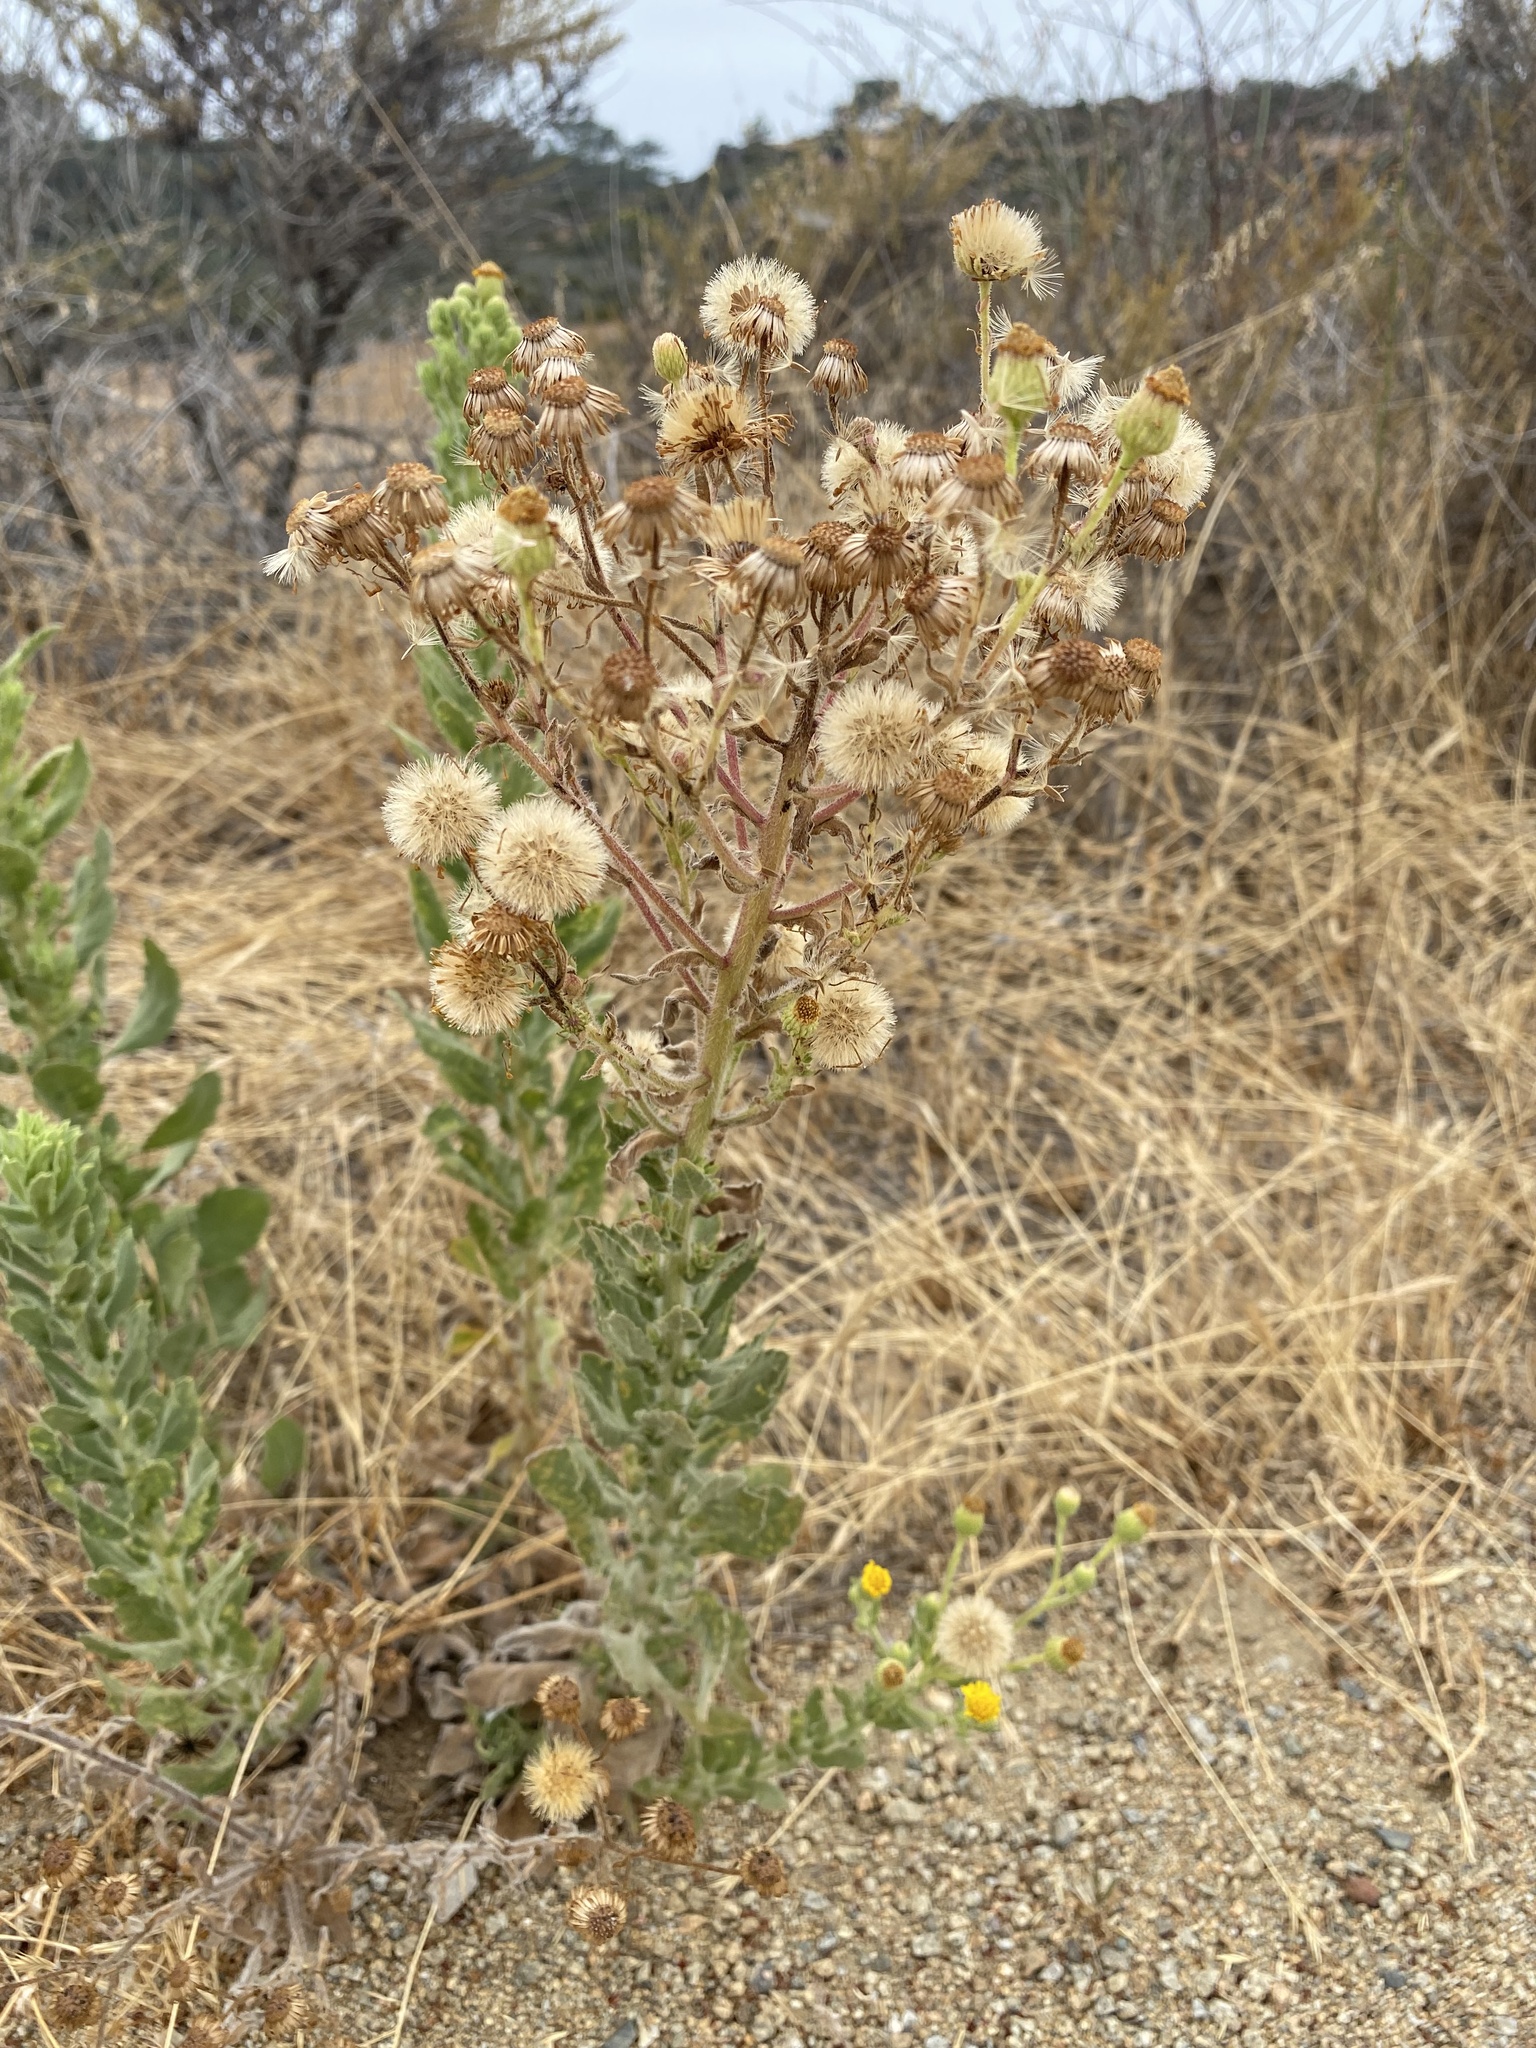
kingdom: Plantae
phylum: Tracheophyta
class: Magnoliopsida
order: Asterales
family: Asteraceae
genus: Heterotheca
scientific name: Heterotheca grandiflora
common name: Telegraphweed
